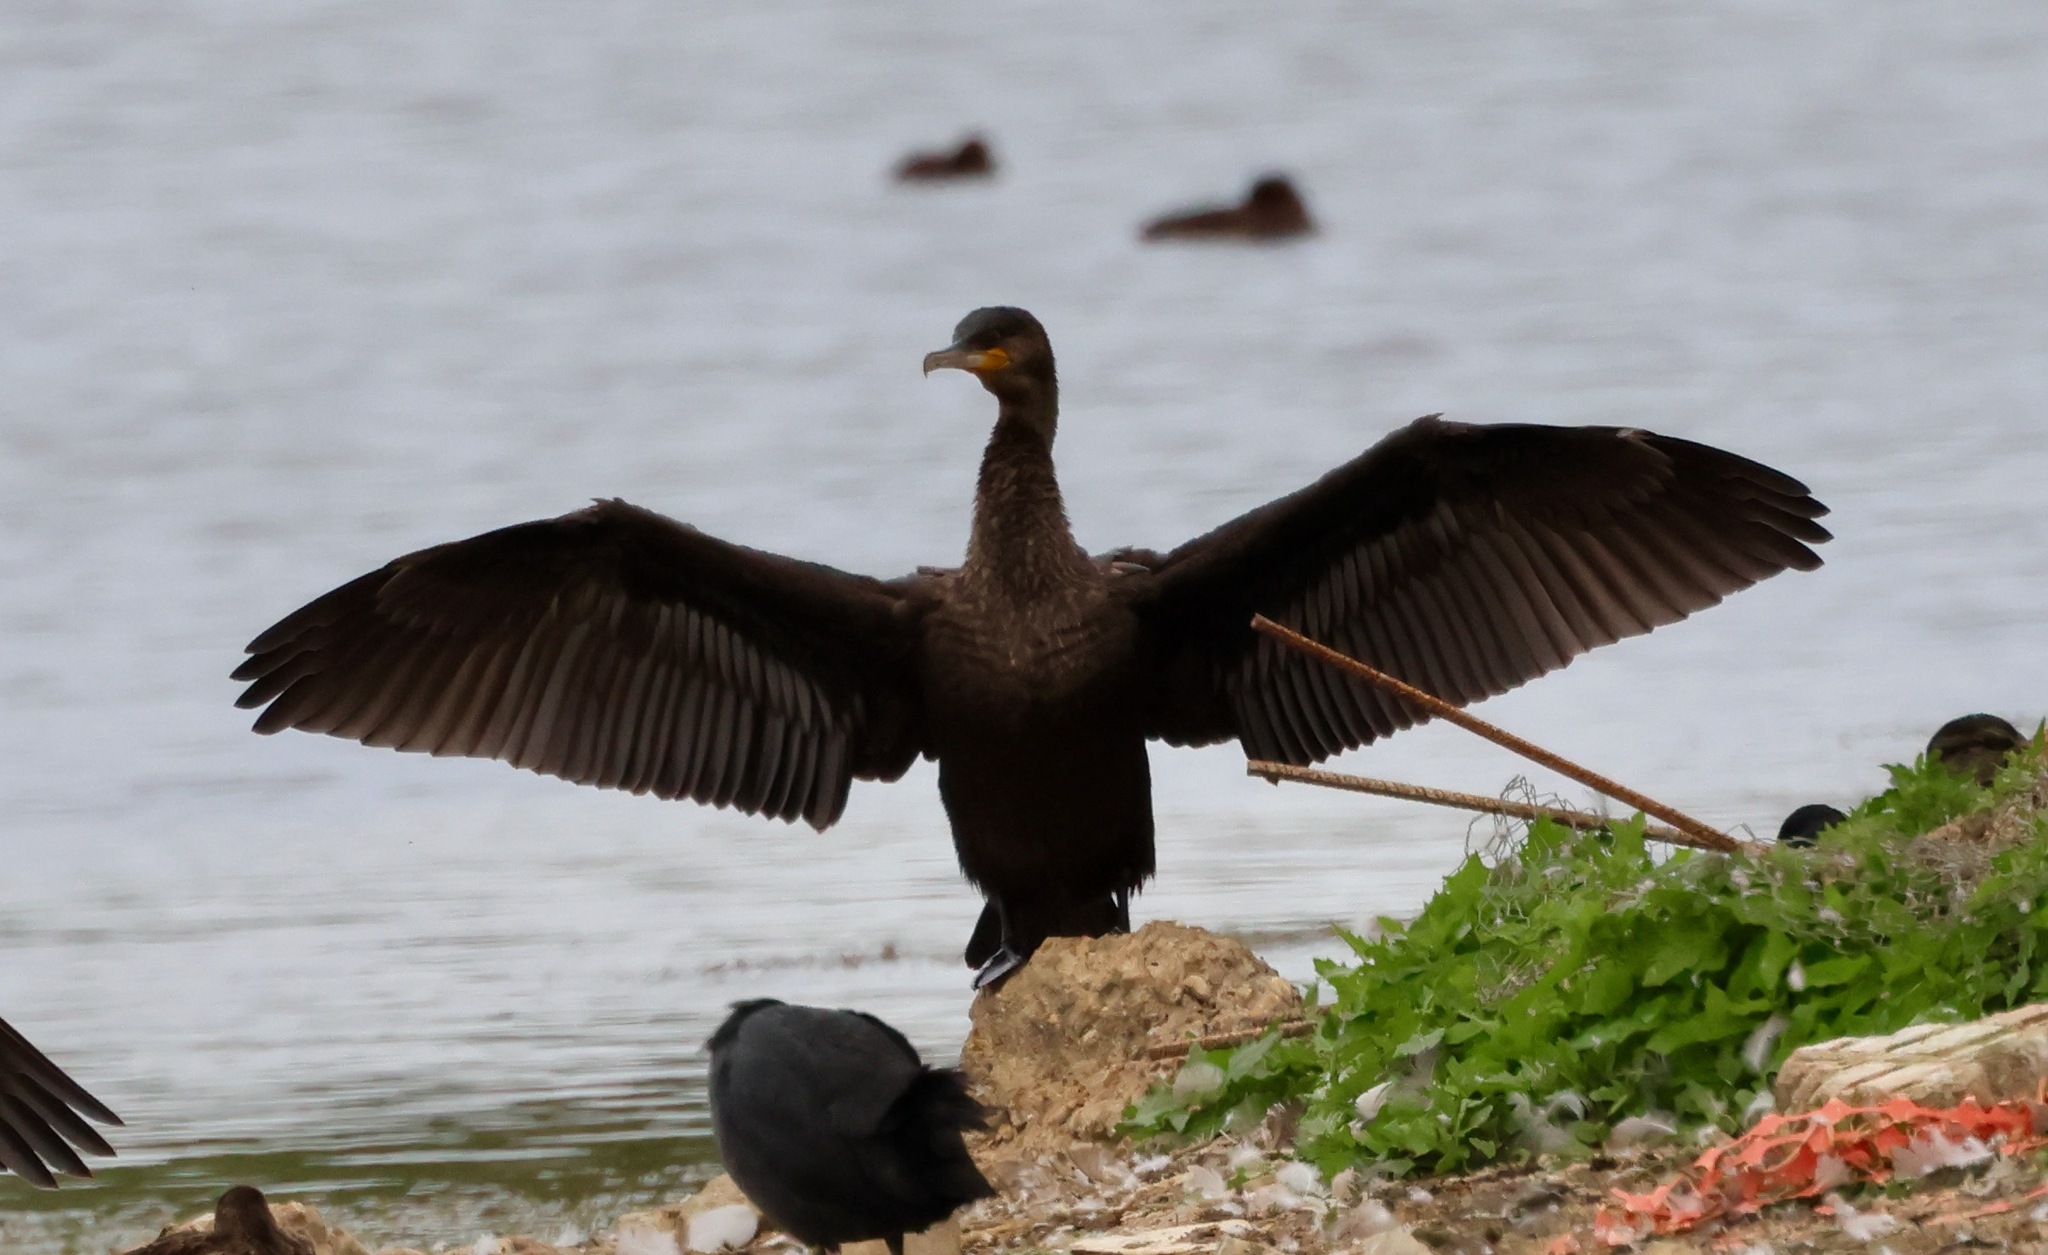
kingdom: Animalia
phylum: Chordata
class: Aves
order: Suliformes
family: Phalacrocoracidae
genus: Phalacrocorax
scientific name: Phalacrocorax carbo
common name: Great cormorant
